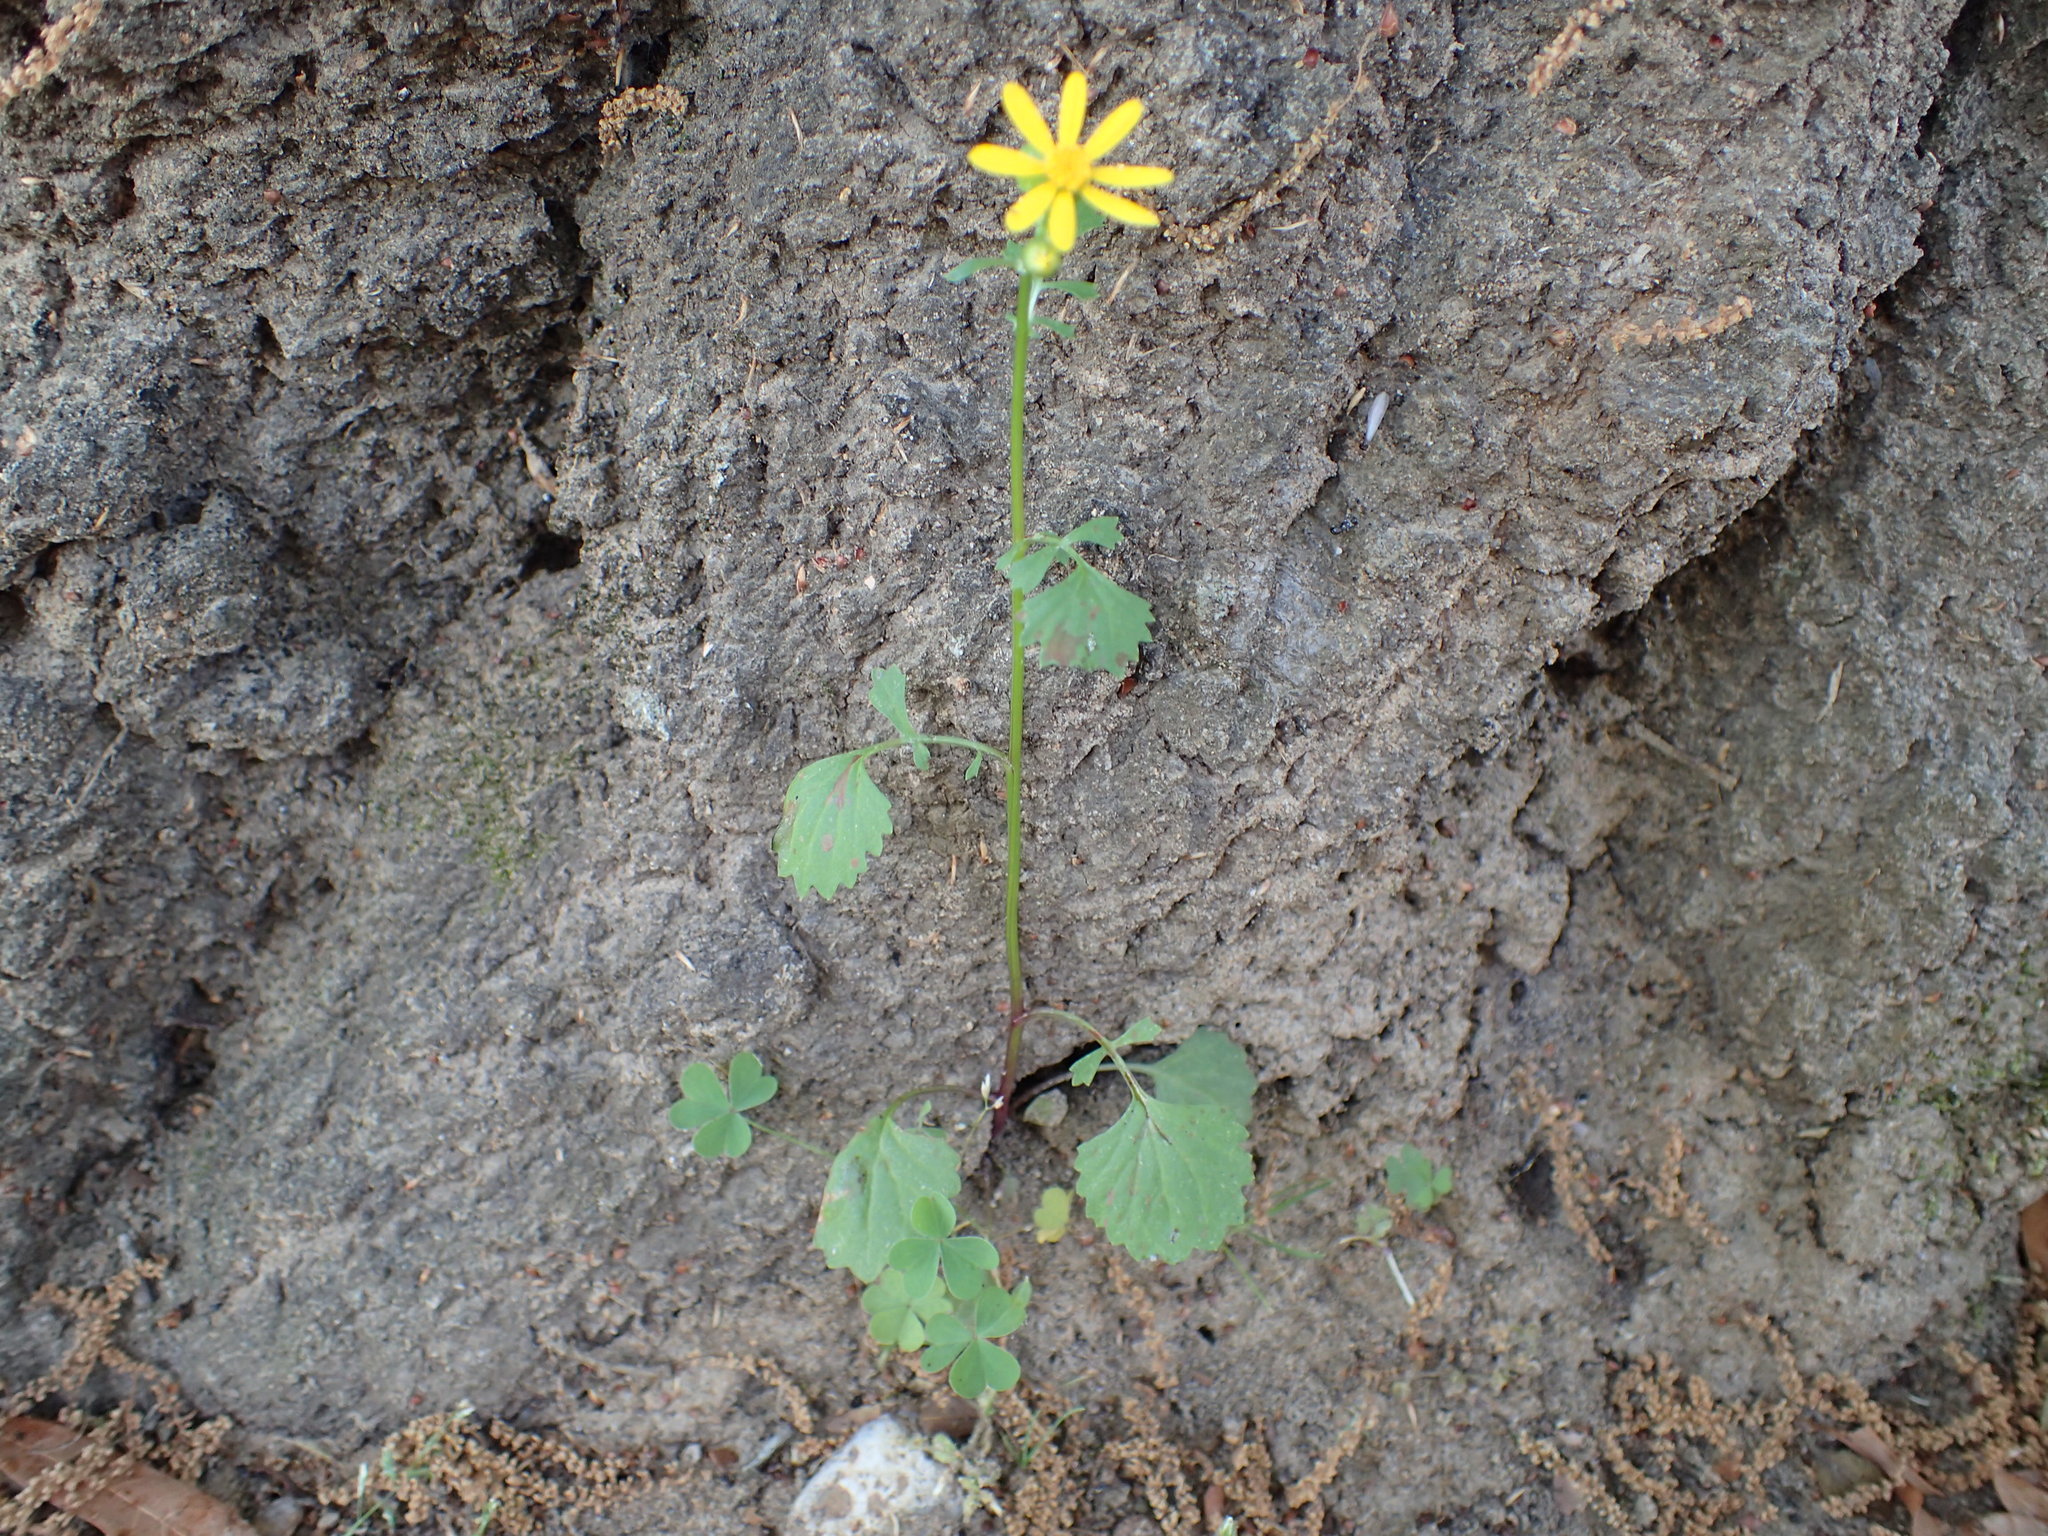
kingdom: Plantae
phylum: Tracheophyta
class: Magnoliopsida
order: Asterales
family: Asteraceae
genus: Packera
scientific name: Packera glabella
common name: Butterweed
